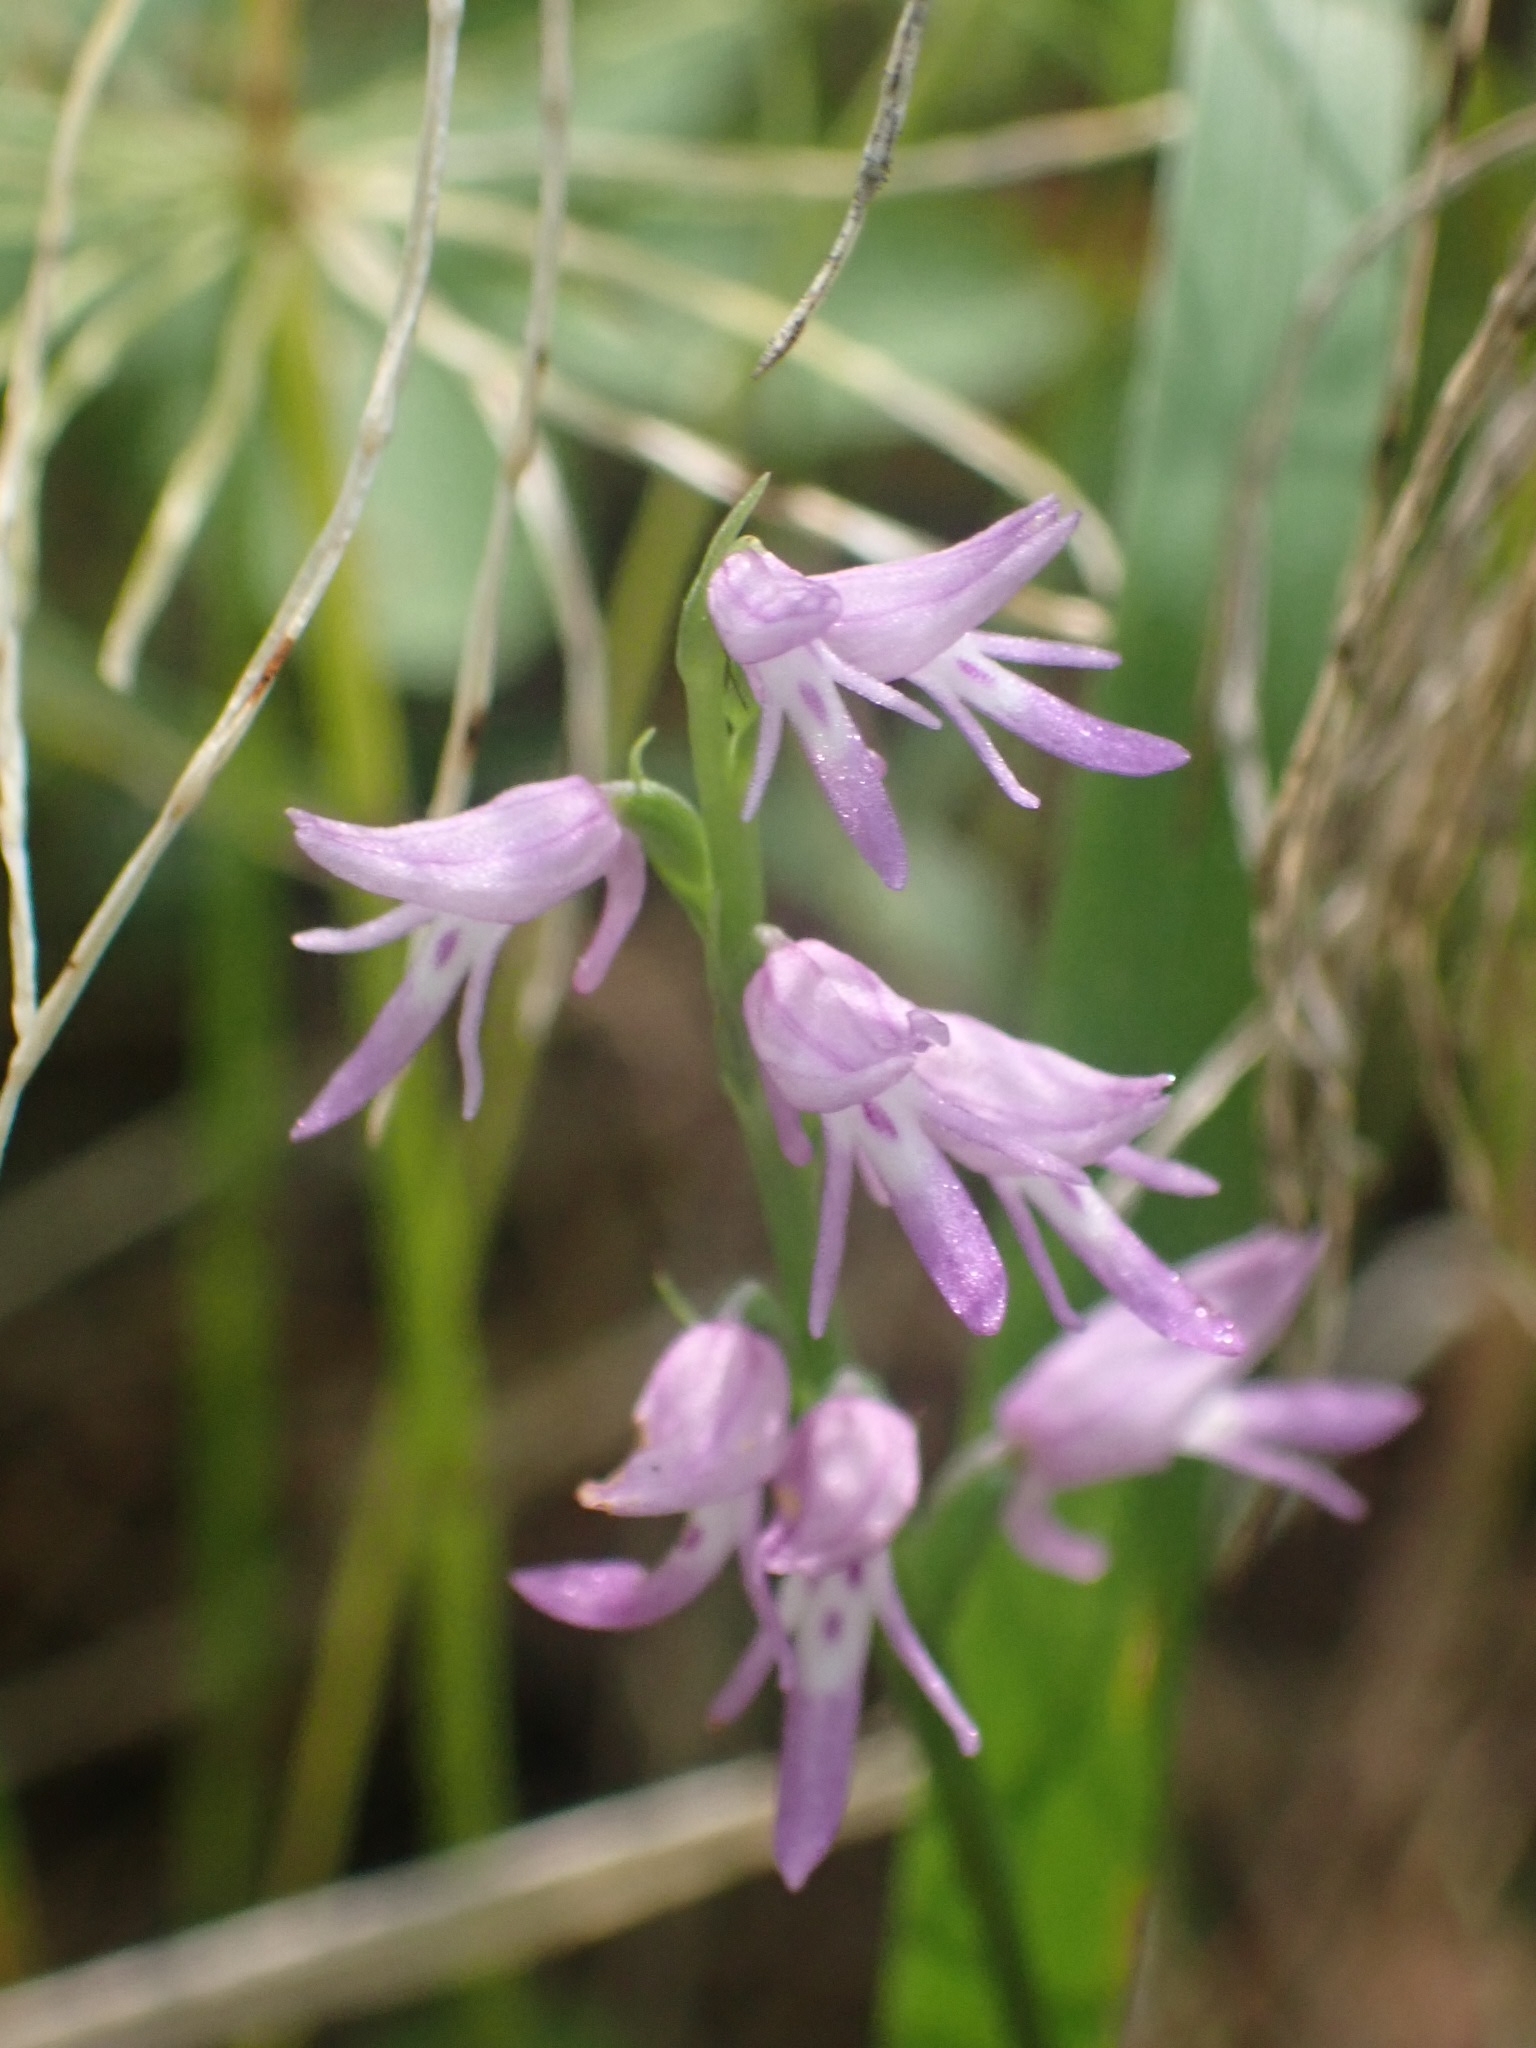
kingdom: Plantae
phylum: Tracheophyta
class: Liliopsida
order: Asparagales
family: Orchidaceae
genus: Hemipilia
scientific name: Hemipilia cucullata
